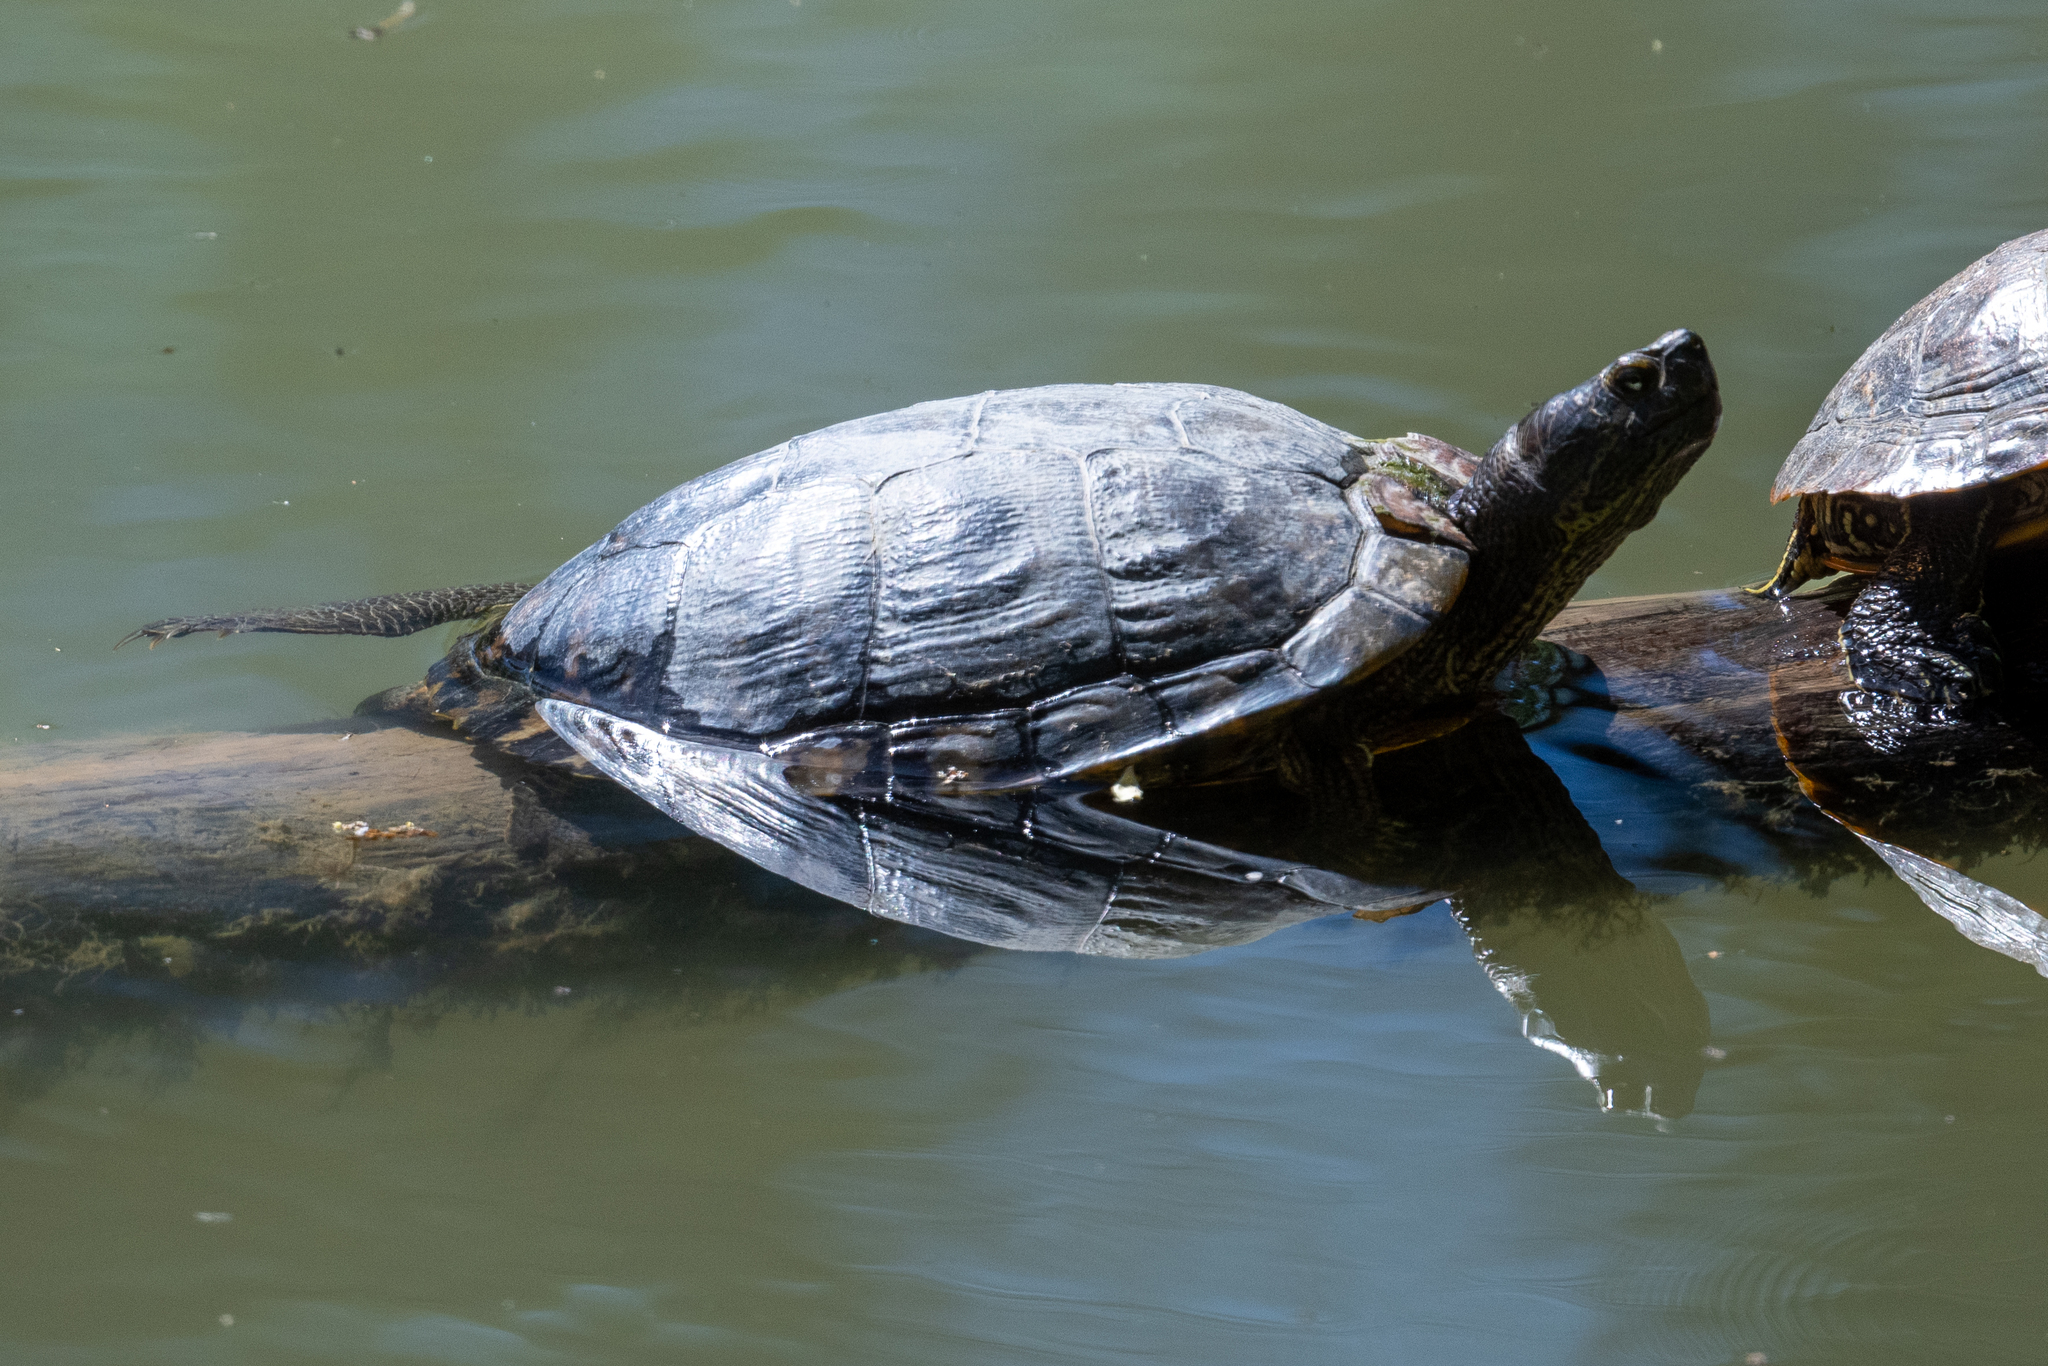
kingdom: Animalia
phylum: Chordata
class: Testudines
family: Emydidae
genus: Trachemys
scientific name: Trachemys scripta
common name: Slider
